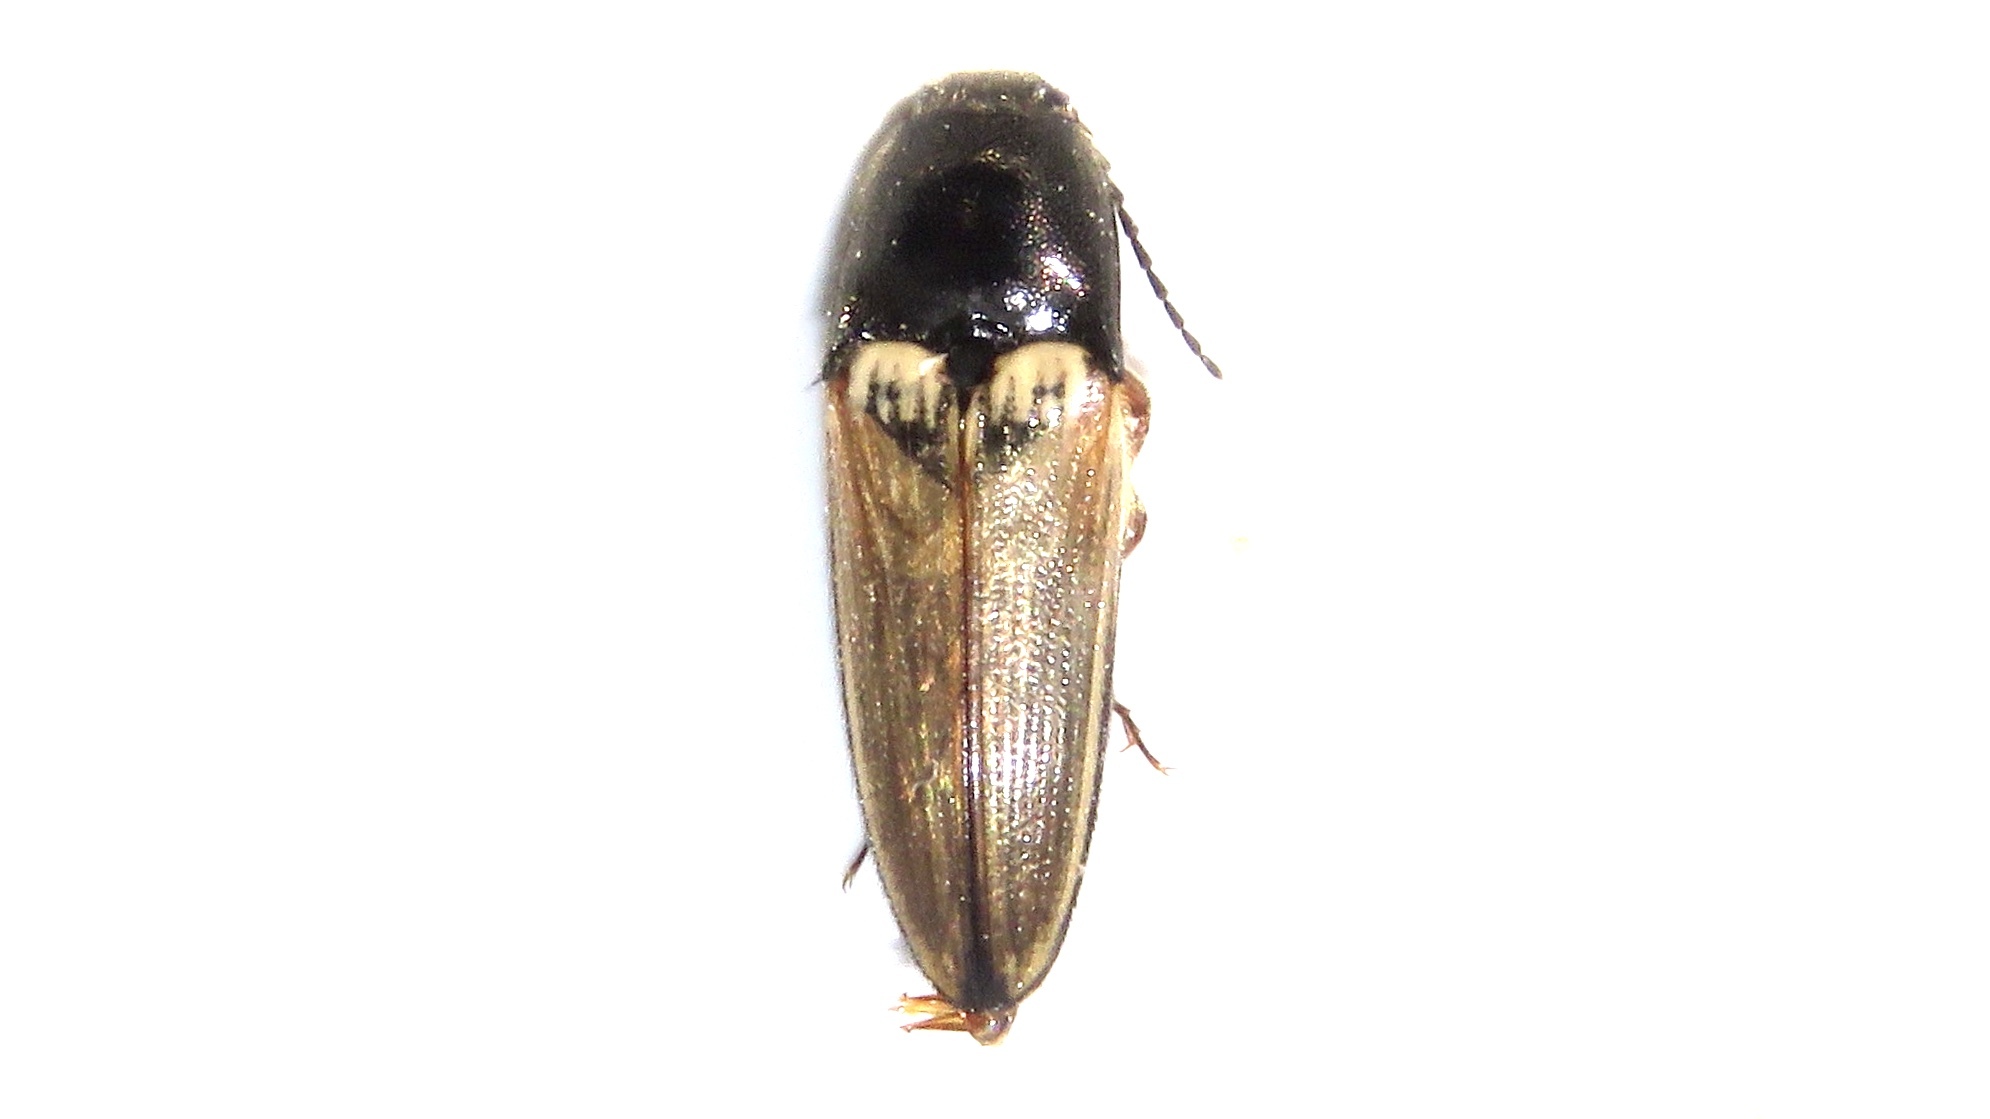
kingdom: Animalia
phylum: Arthropoda
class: Insecta
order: Coleoptera
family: Elateridae
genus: Ampedus
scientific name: Ampedus nigricollis
